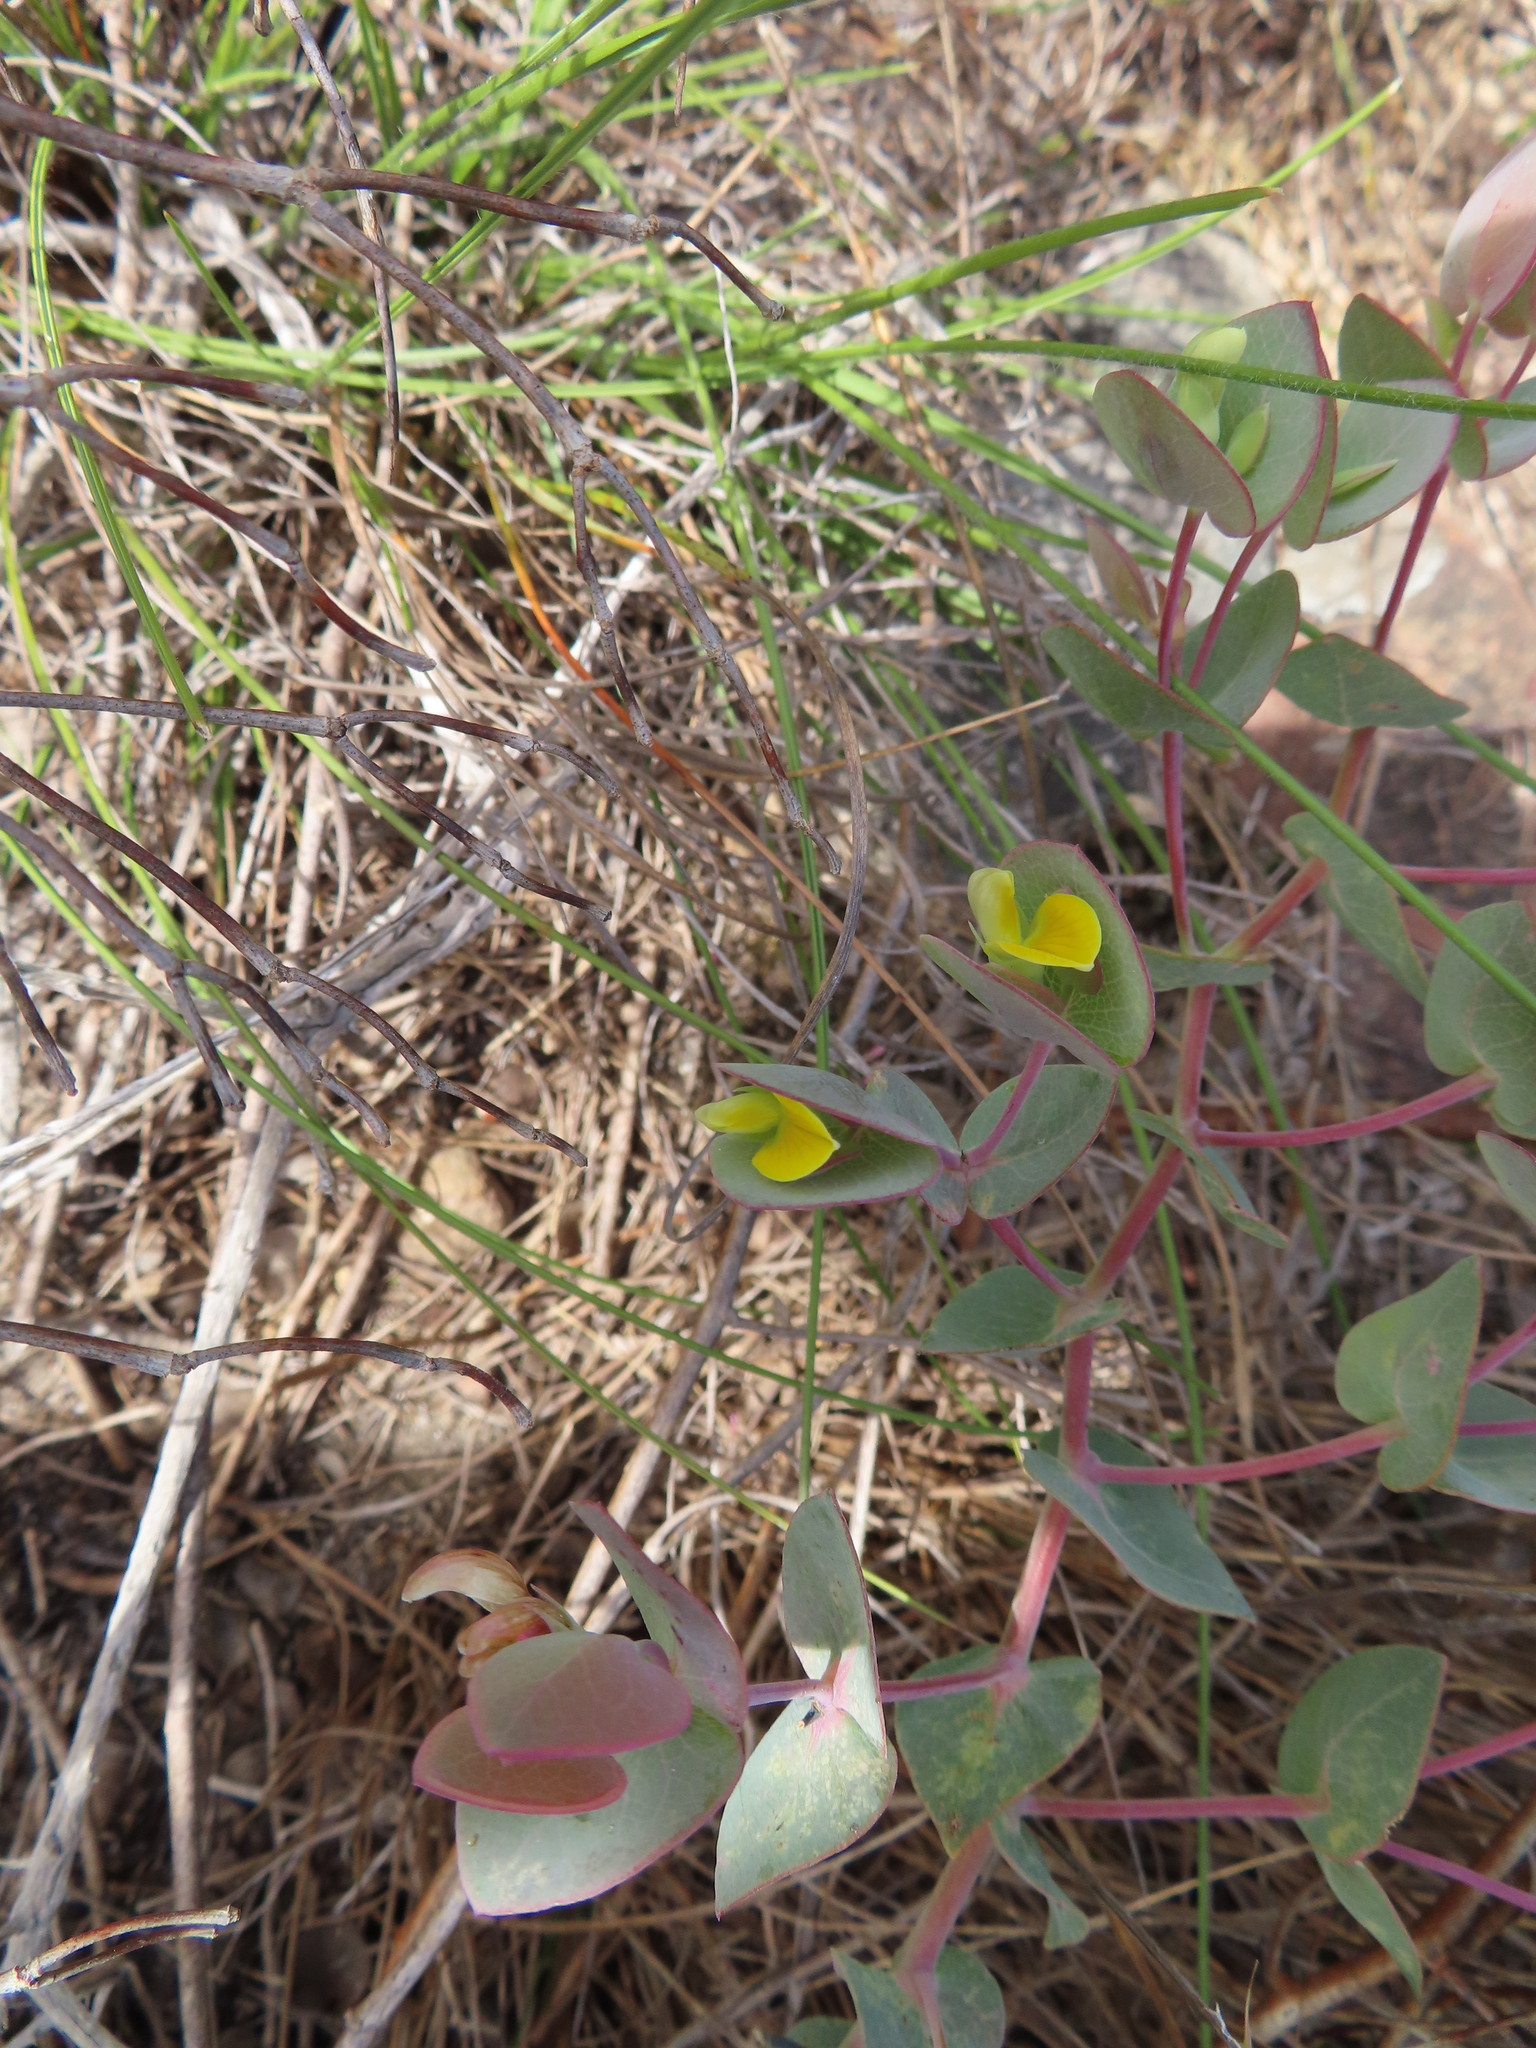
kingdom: Plantae
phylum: Tracheophyta
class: Magnoliopsida
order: Fabales
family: Fabaceae
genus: Rafnia
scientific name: Rafnia acuminata
